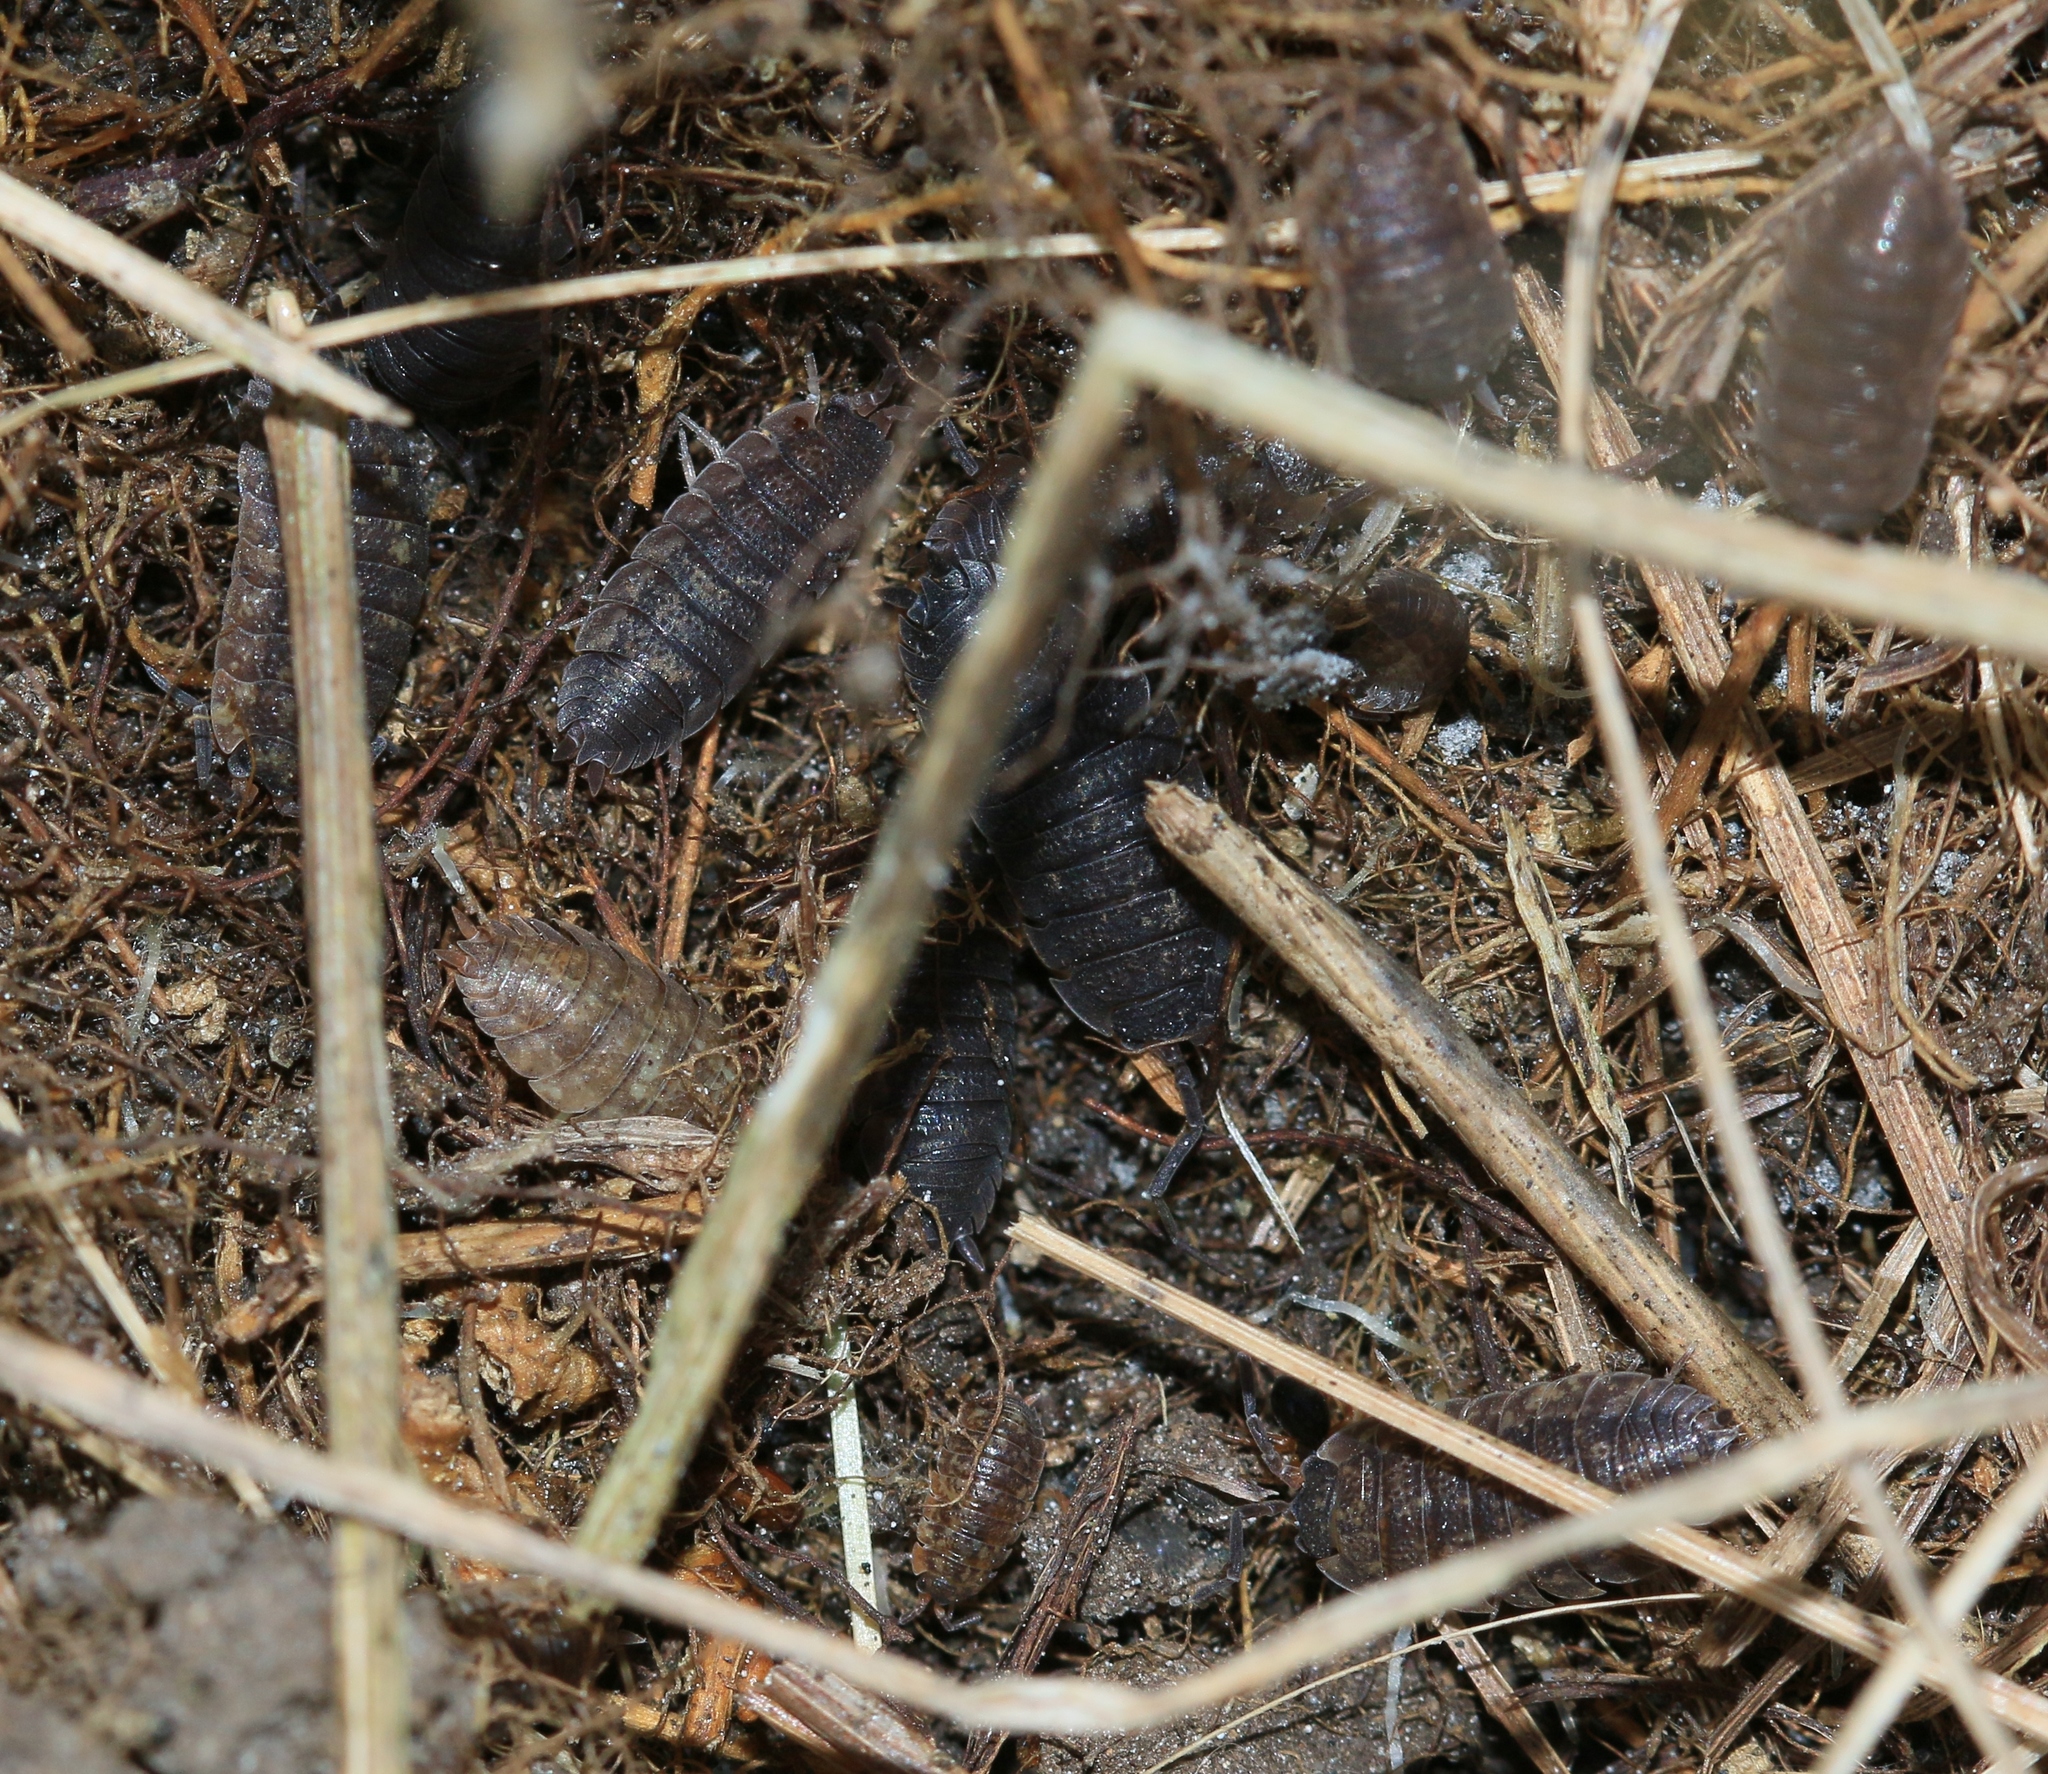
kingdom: Animalia
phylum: Arthropoda
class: Malacostraca
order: Isopoda
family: Porcellionidae
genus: Porcellio
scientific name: Porcellio scaber
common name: Common rough woodlouse
